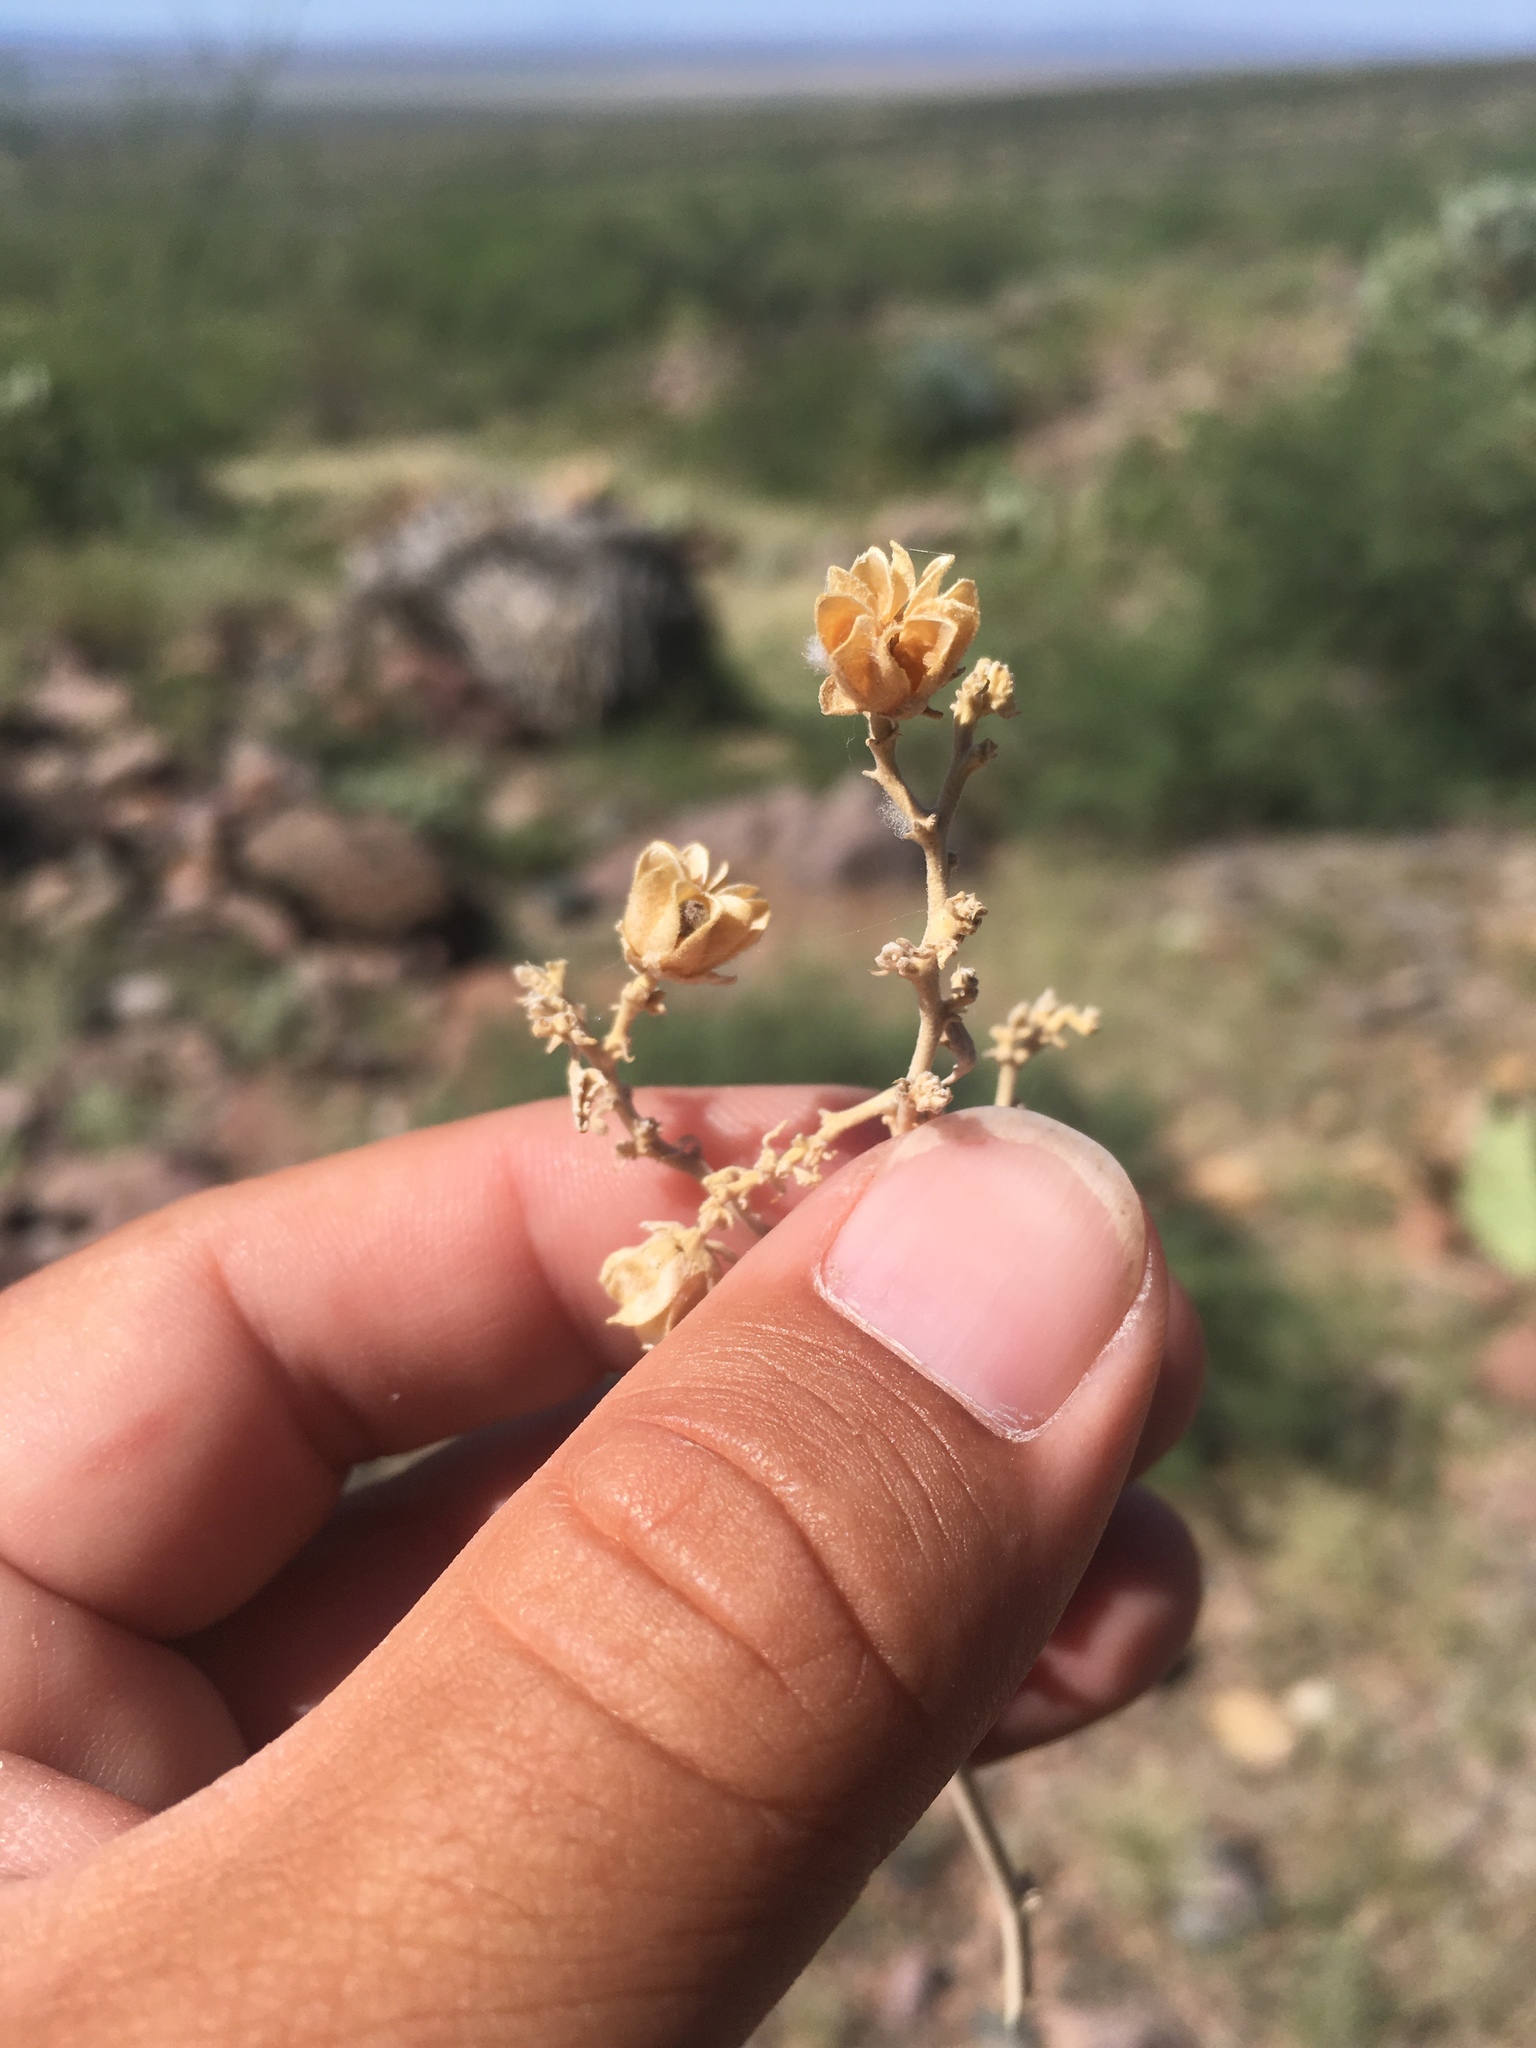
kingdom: Plantae
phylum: Tracheophyta
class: Magnoliopsida
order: Malvales
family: Malvaceae
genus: Abutilon
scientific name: Abutilon malacum
